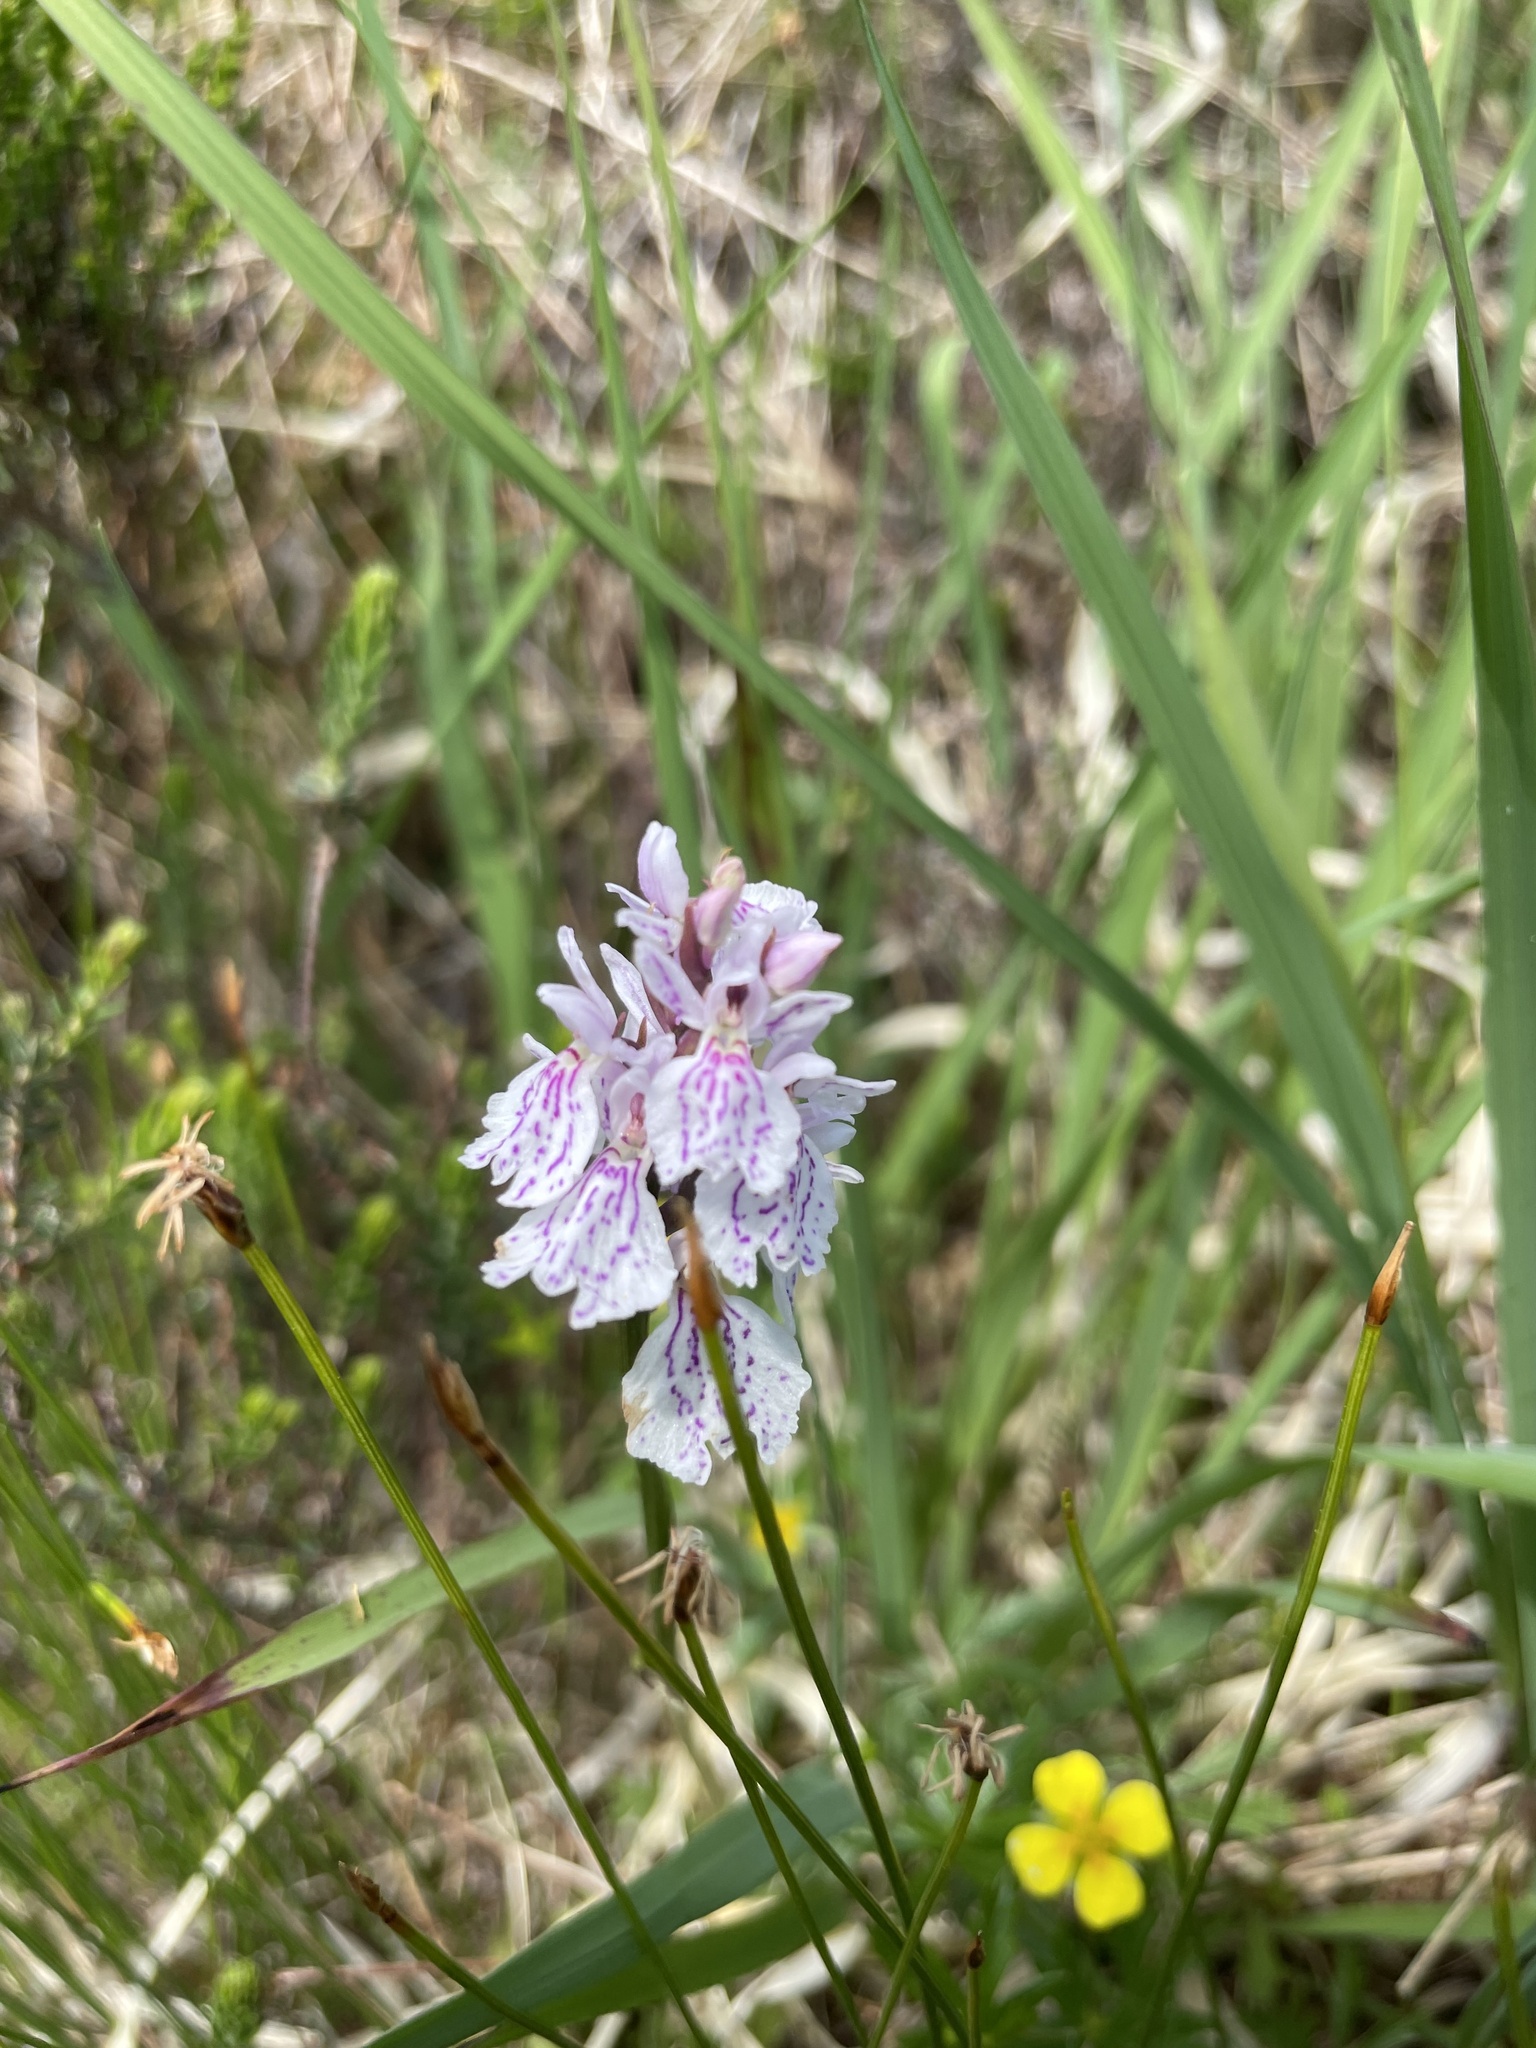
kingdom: Plantae
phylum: Tracheophyta
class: Liliopsida
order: Asparagales
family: Orchidaceae
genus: Dactylorhiza
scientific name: Dactylorhiza maculata
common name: Heath spotted-orchid
